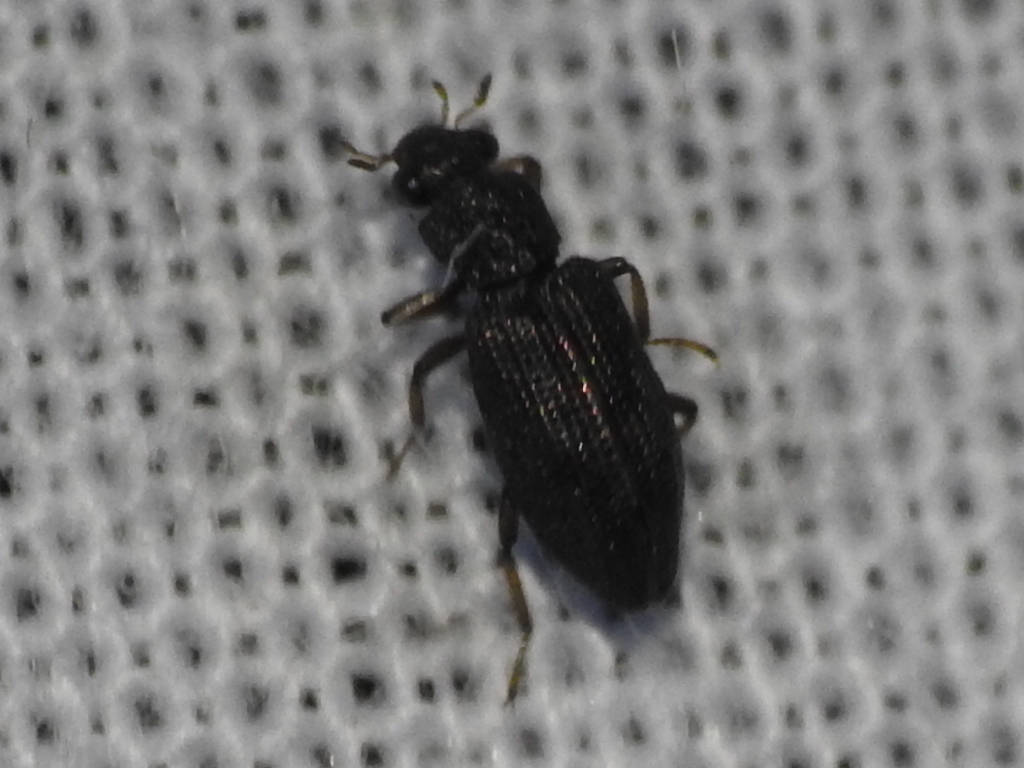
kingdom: Animalia
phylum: Arthropoda
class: Insecta
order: Coleoptera
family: Hydrochidae
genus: Hydrochus
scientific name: Hydrochus
